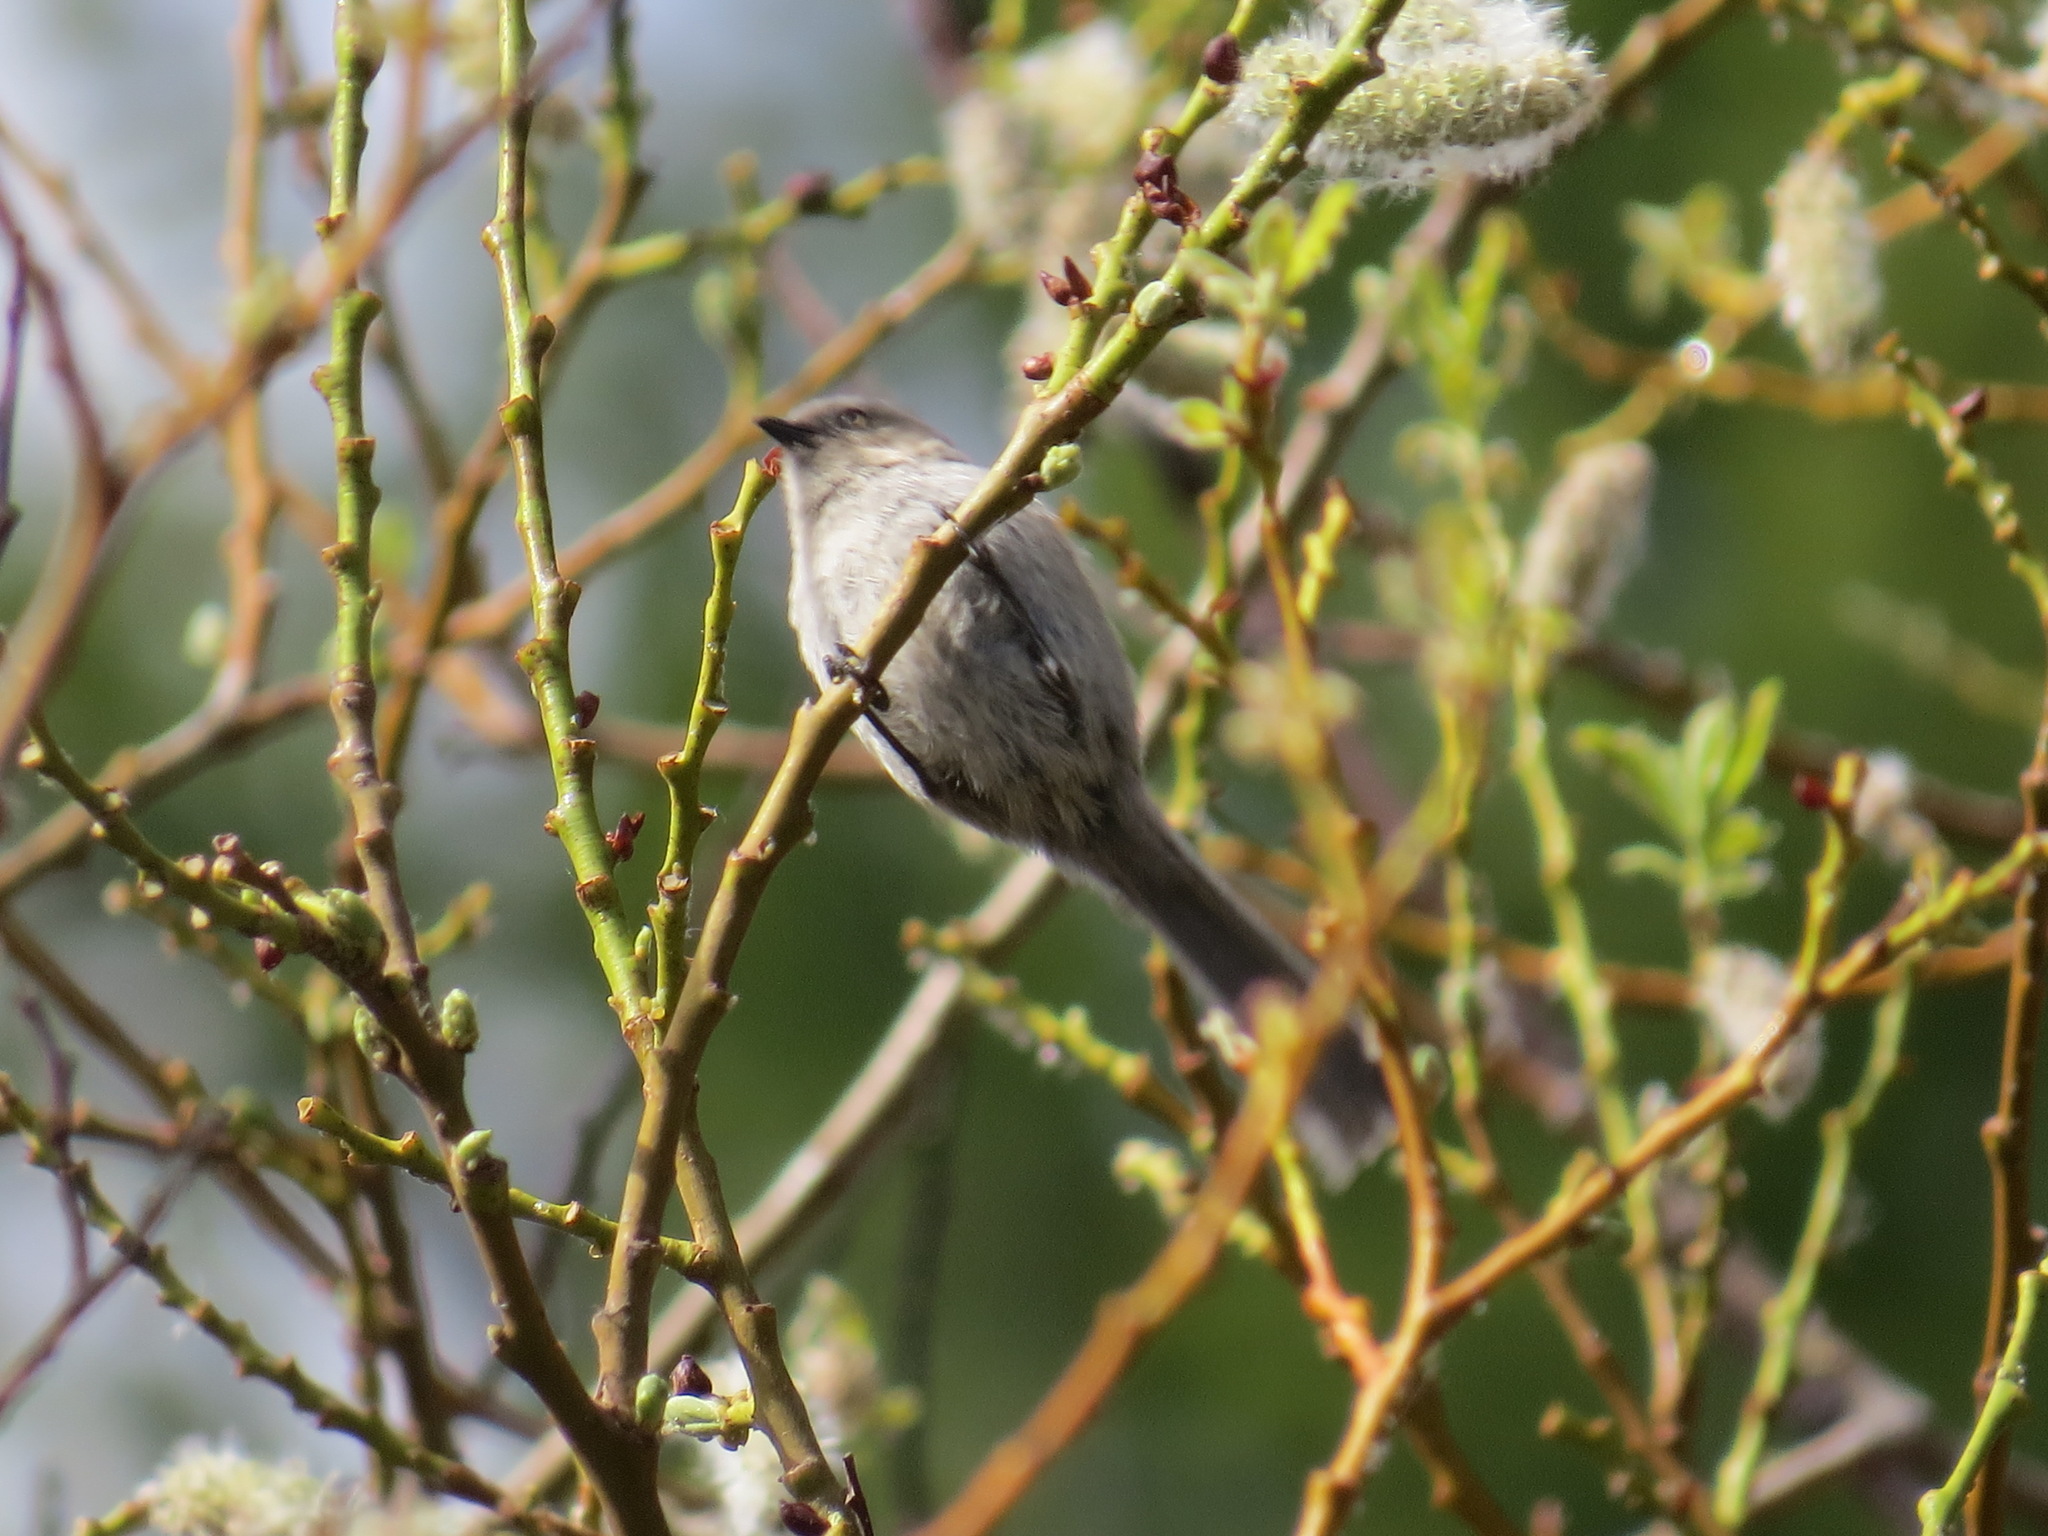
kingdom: Animalia
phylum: Chordata
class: Aves
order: Passeriformes
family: Aegithalidae
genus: Psaltriparus
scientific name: Psaltriparus minimus
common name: American bushtit
